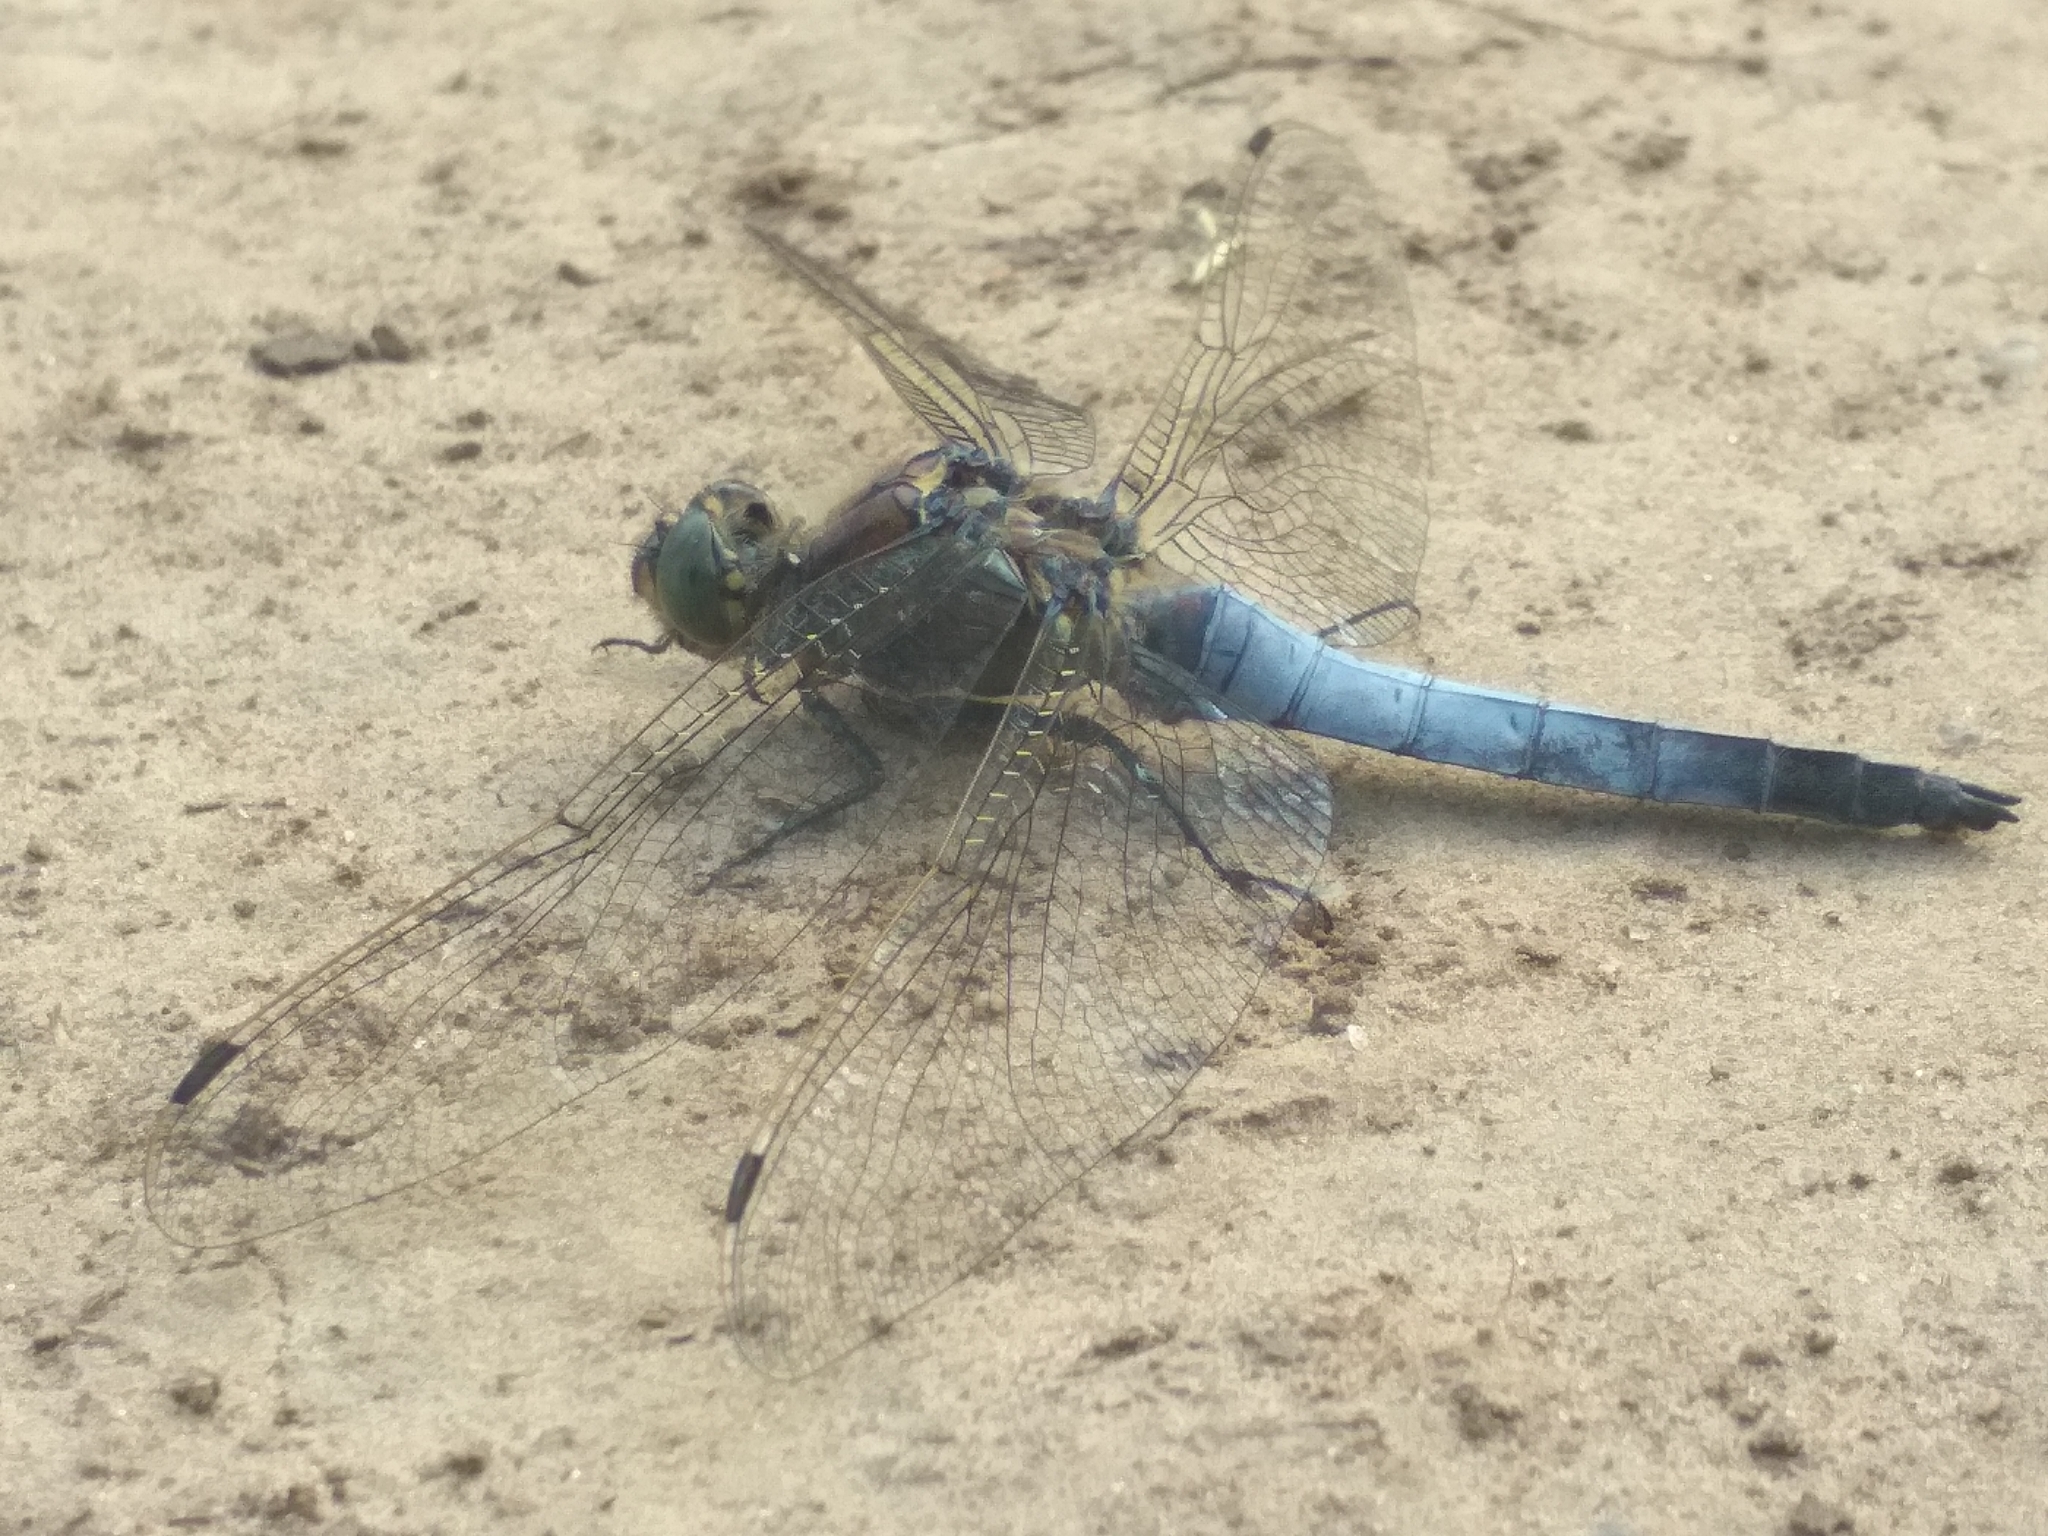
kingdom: Animalia
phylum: Arthropoda
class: Insecta
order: Odonata
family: Libellulidae
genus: Orthetrum
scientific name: Orthetrum cancellatum
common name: Black-tailed skimmer
